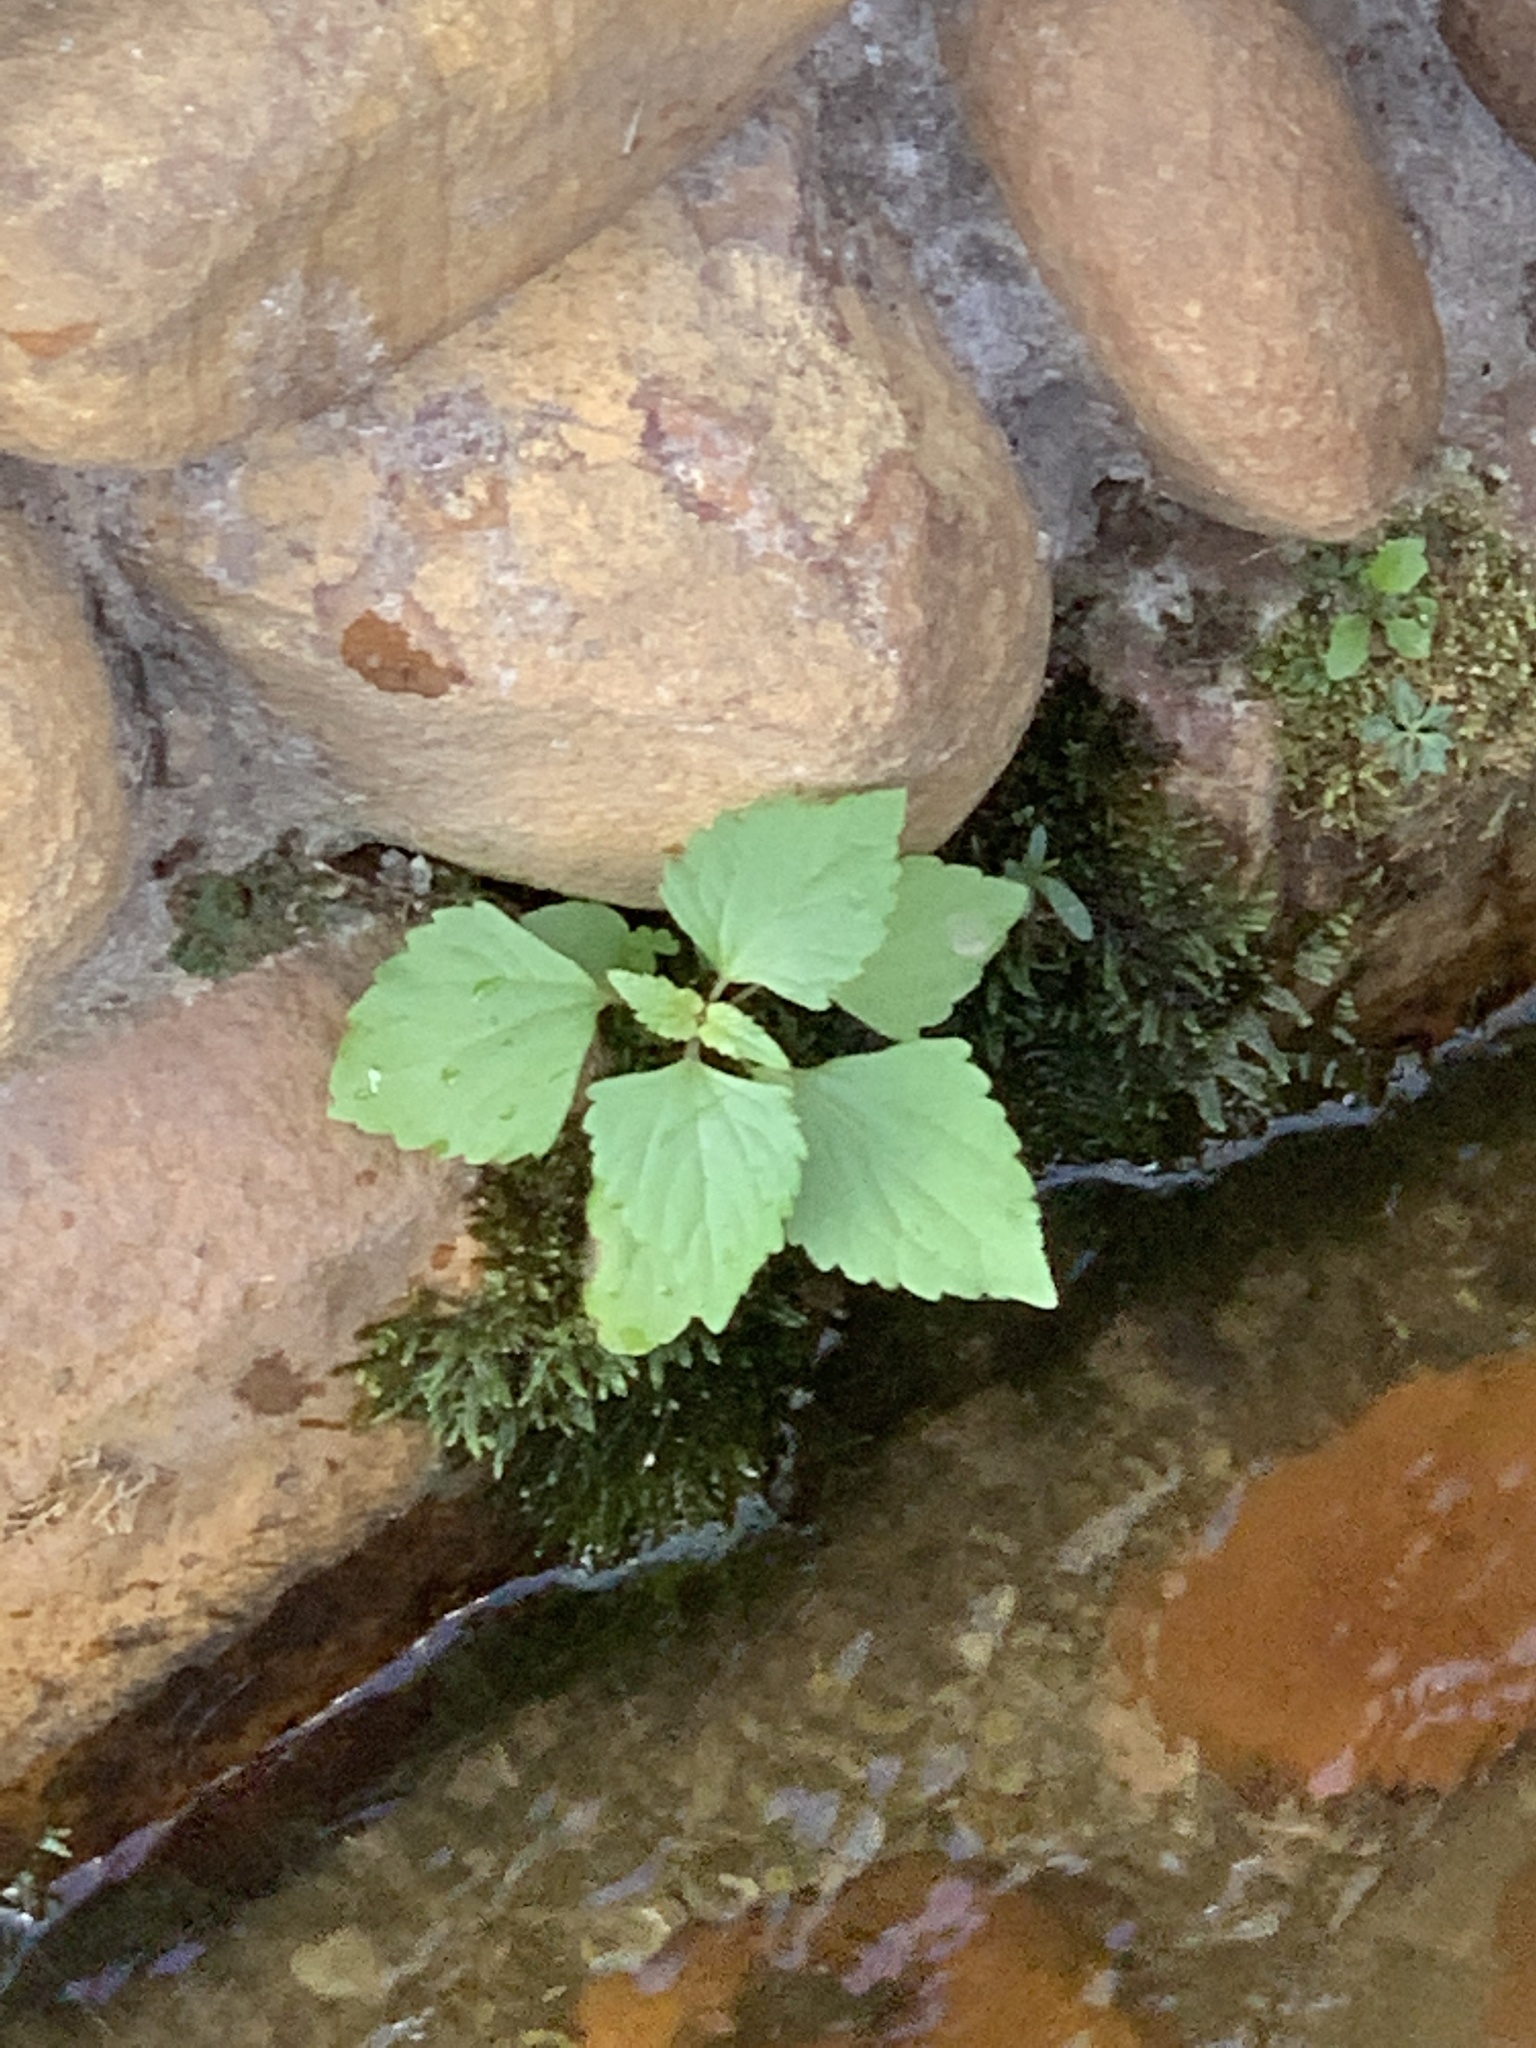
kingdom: Plantae
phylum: Tracheophyta
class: Magnoliopsida
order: Asterales
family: Asteraceae
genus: Ageratina
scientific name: Ageratina adenophora
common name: Sticky snakeroot
